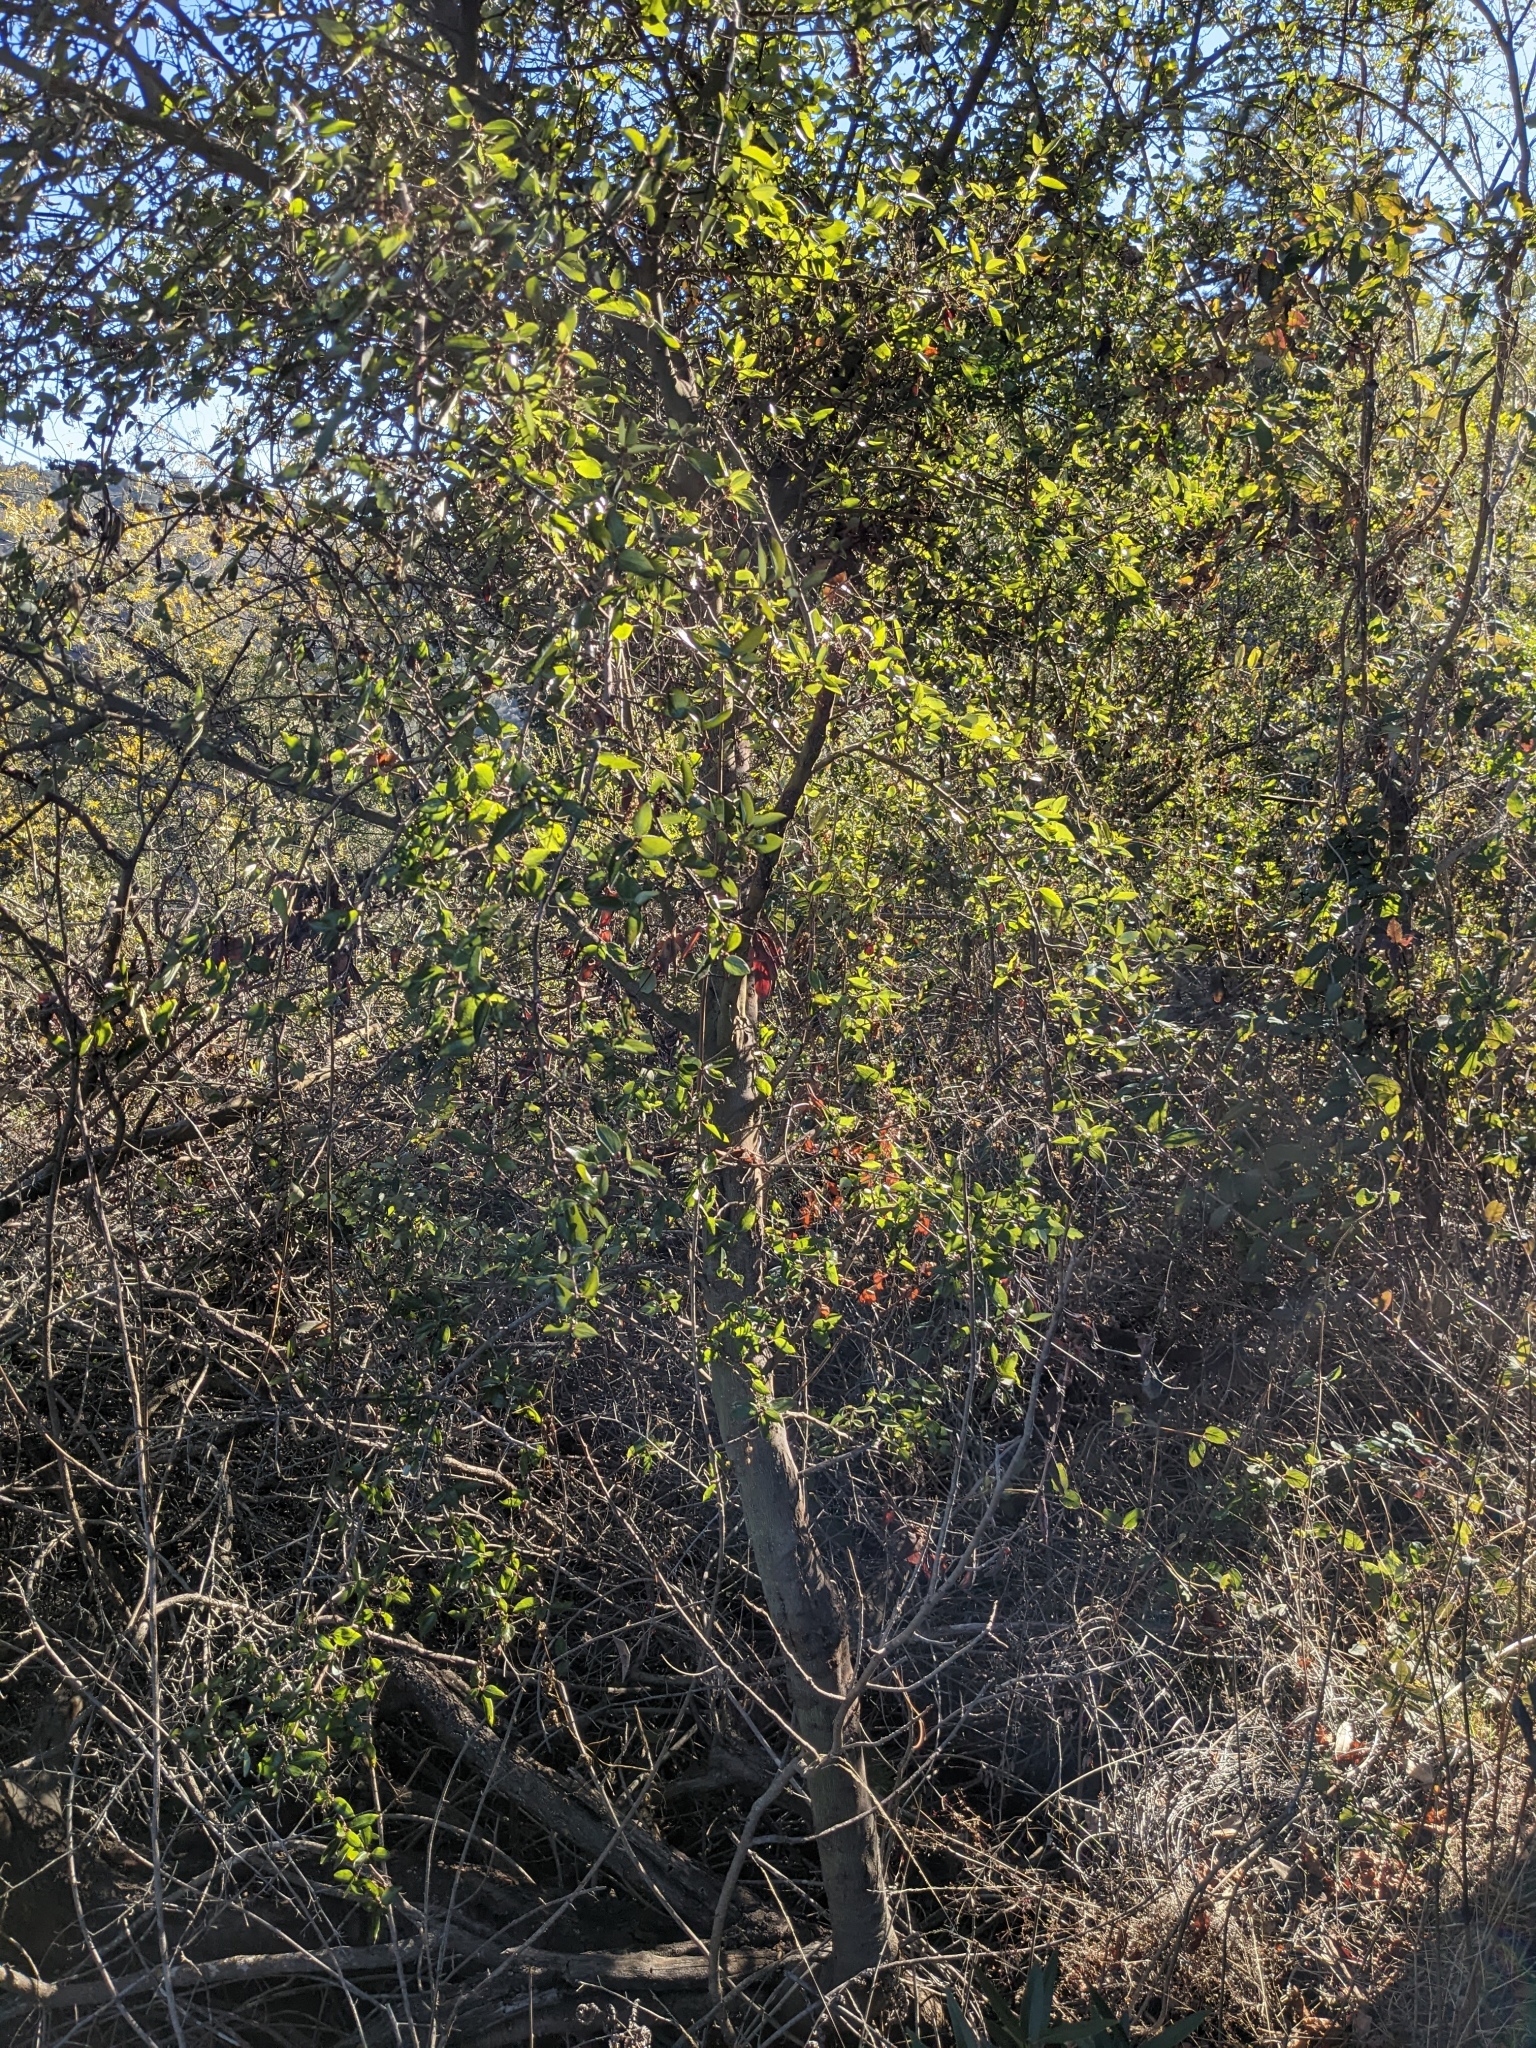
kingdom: Plantae
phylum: Tracheophyta
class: Magnoliopsida
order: Rosales
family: Rhamnaceae
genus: Ceanothus
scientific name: Ceanothus sorediatus
